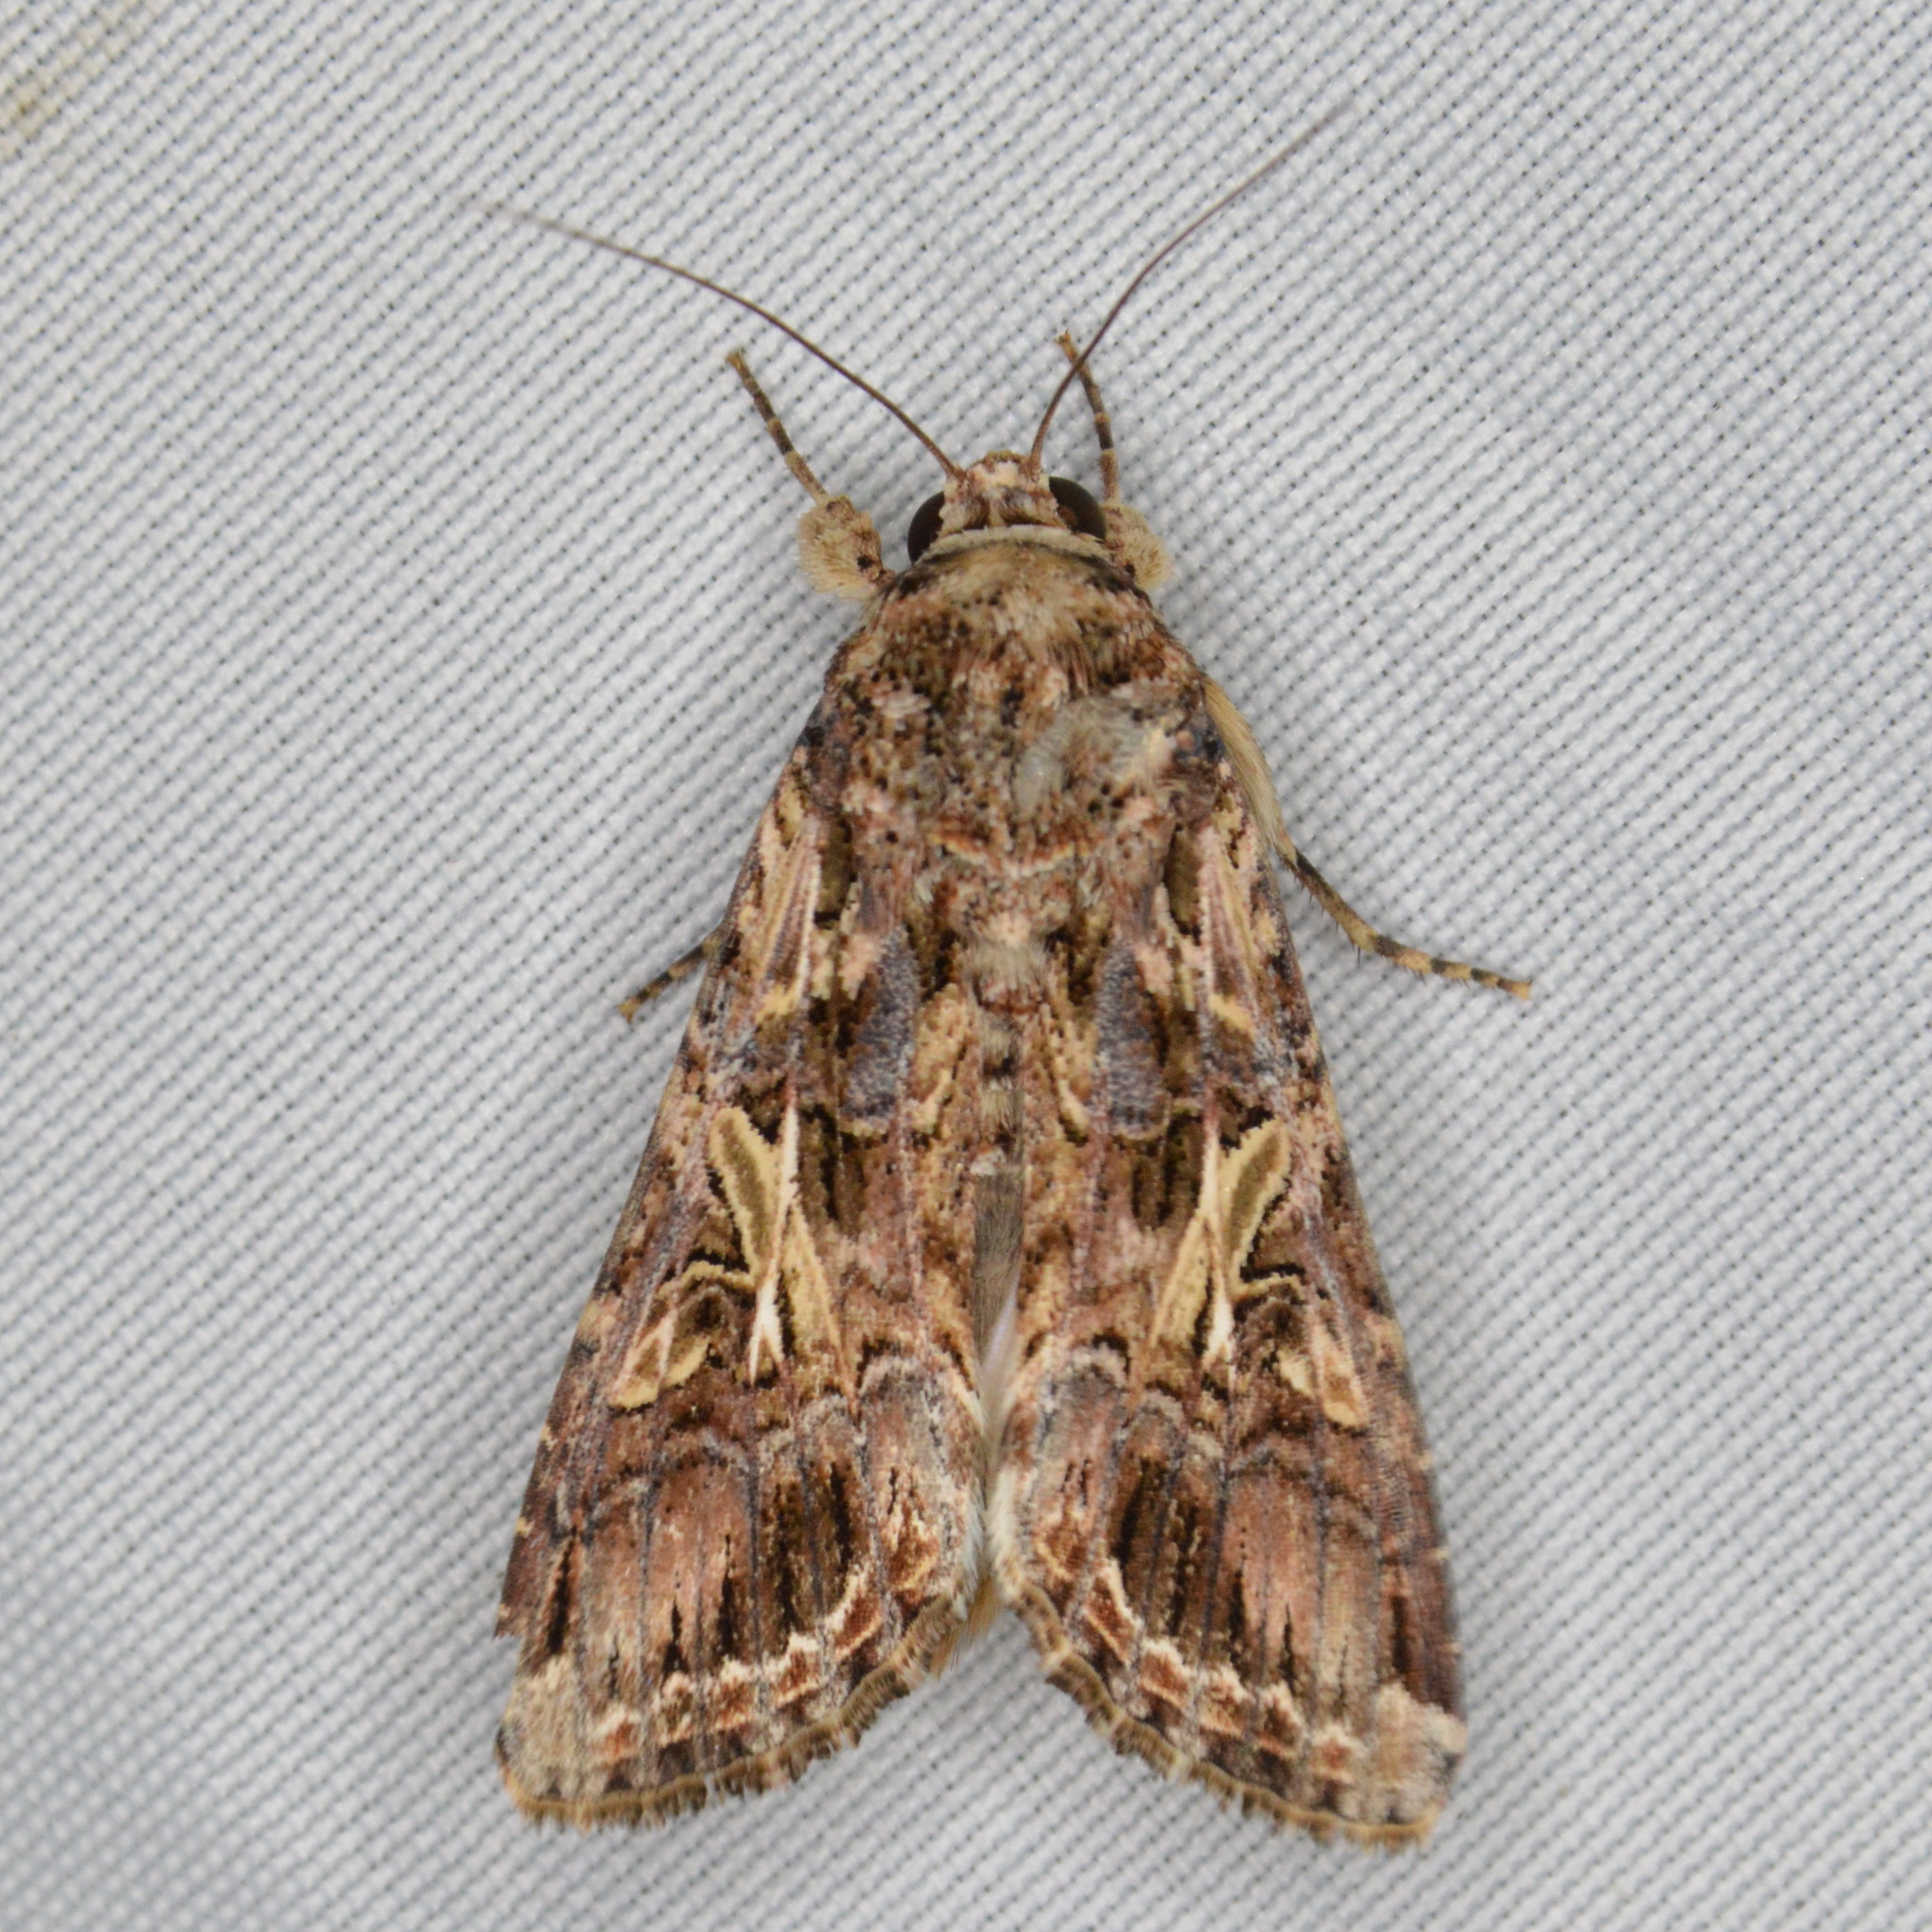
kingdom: Animalia
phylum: Arthropoda
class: Insecta
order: Lepidoptera
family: Noctuidae
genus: Spodoptera
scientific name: Spodoptera ornithogalli
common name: Yellow-striped armyworm
